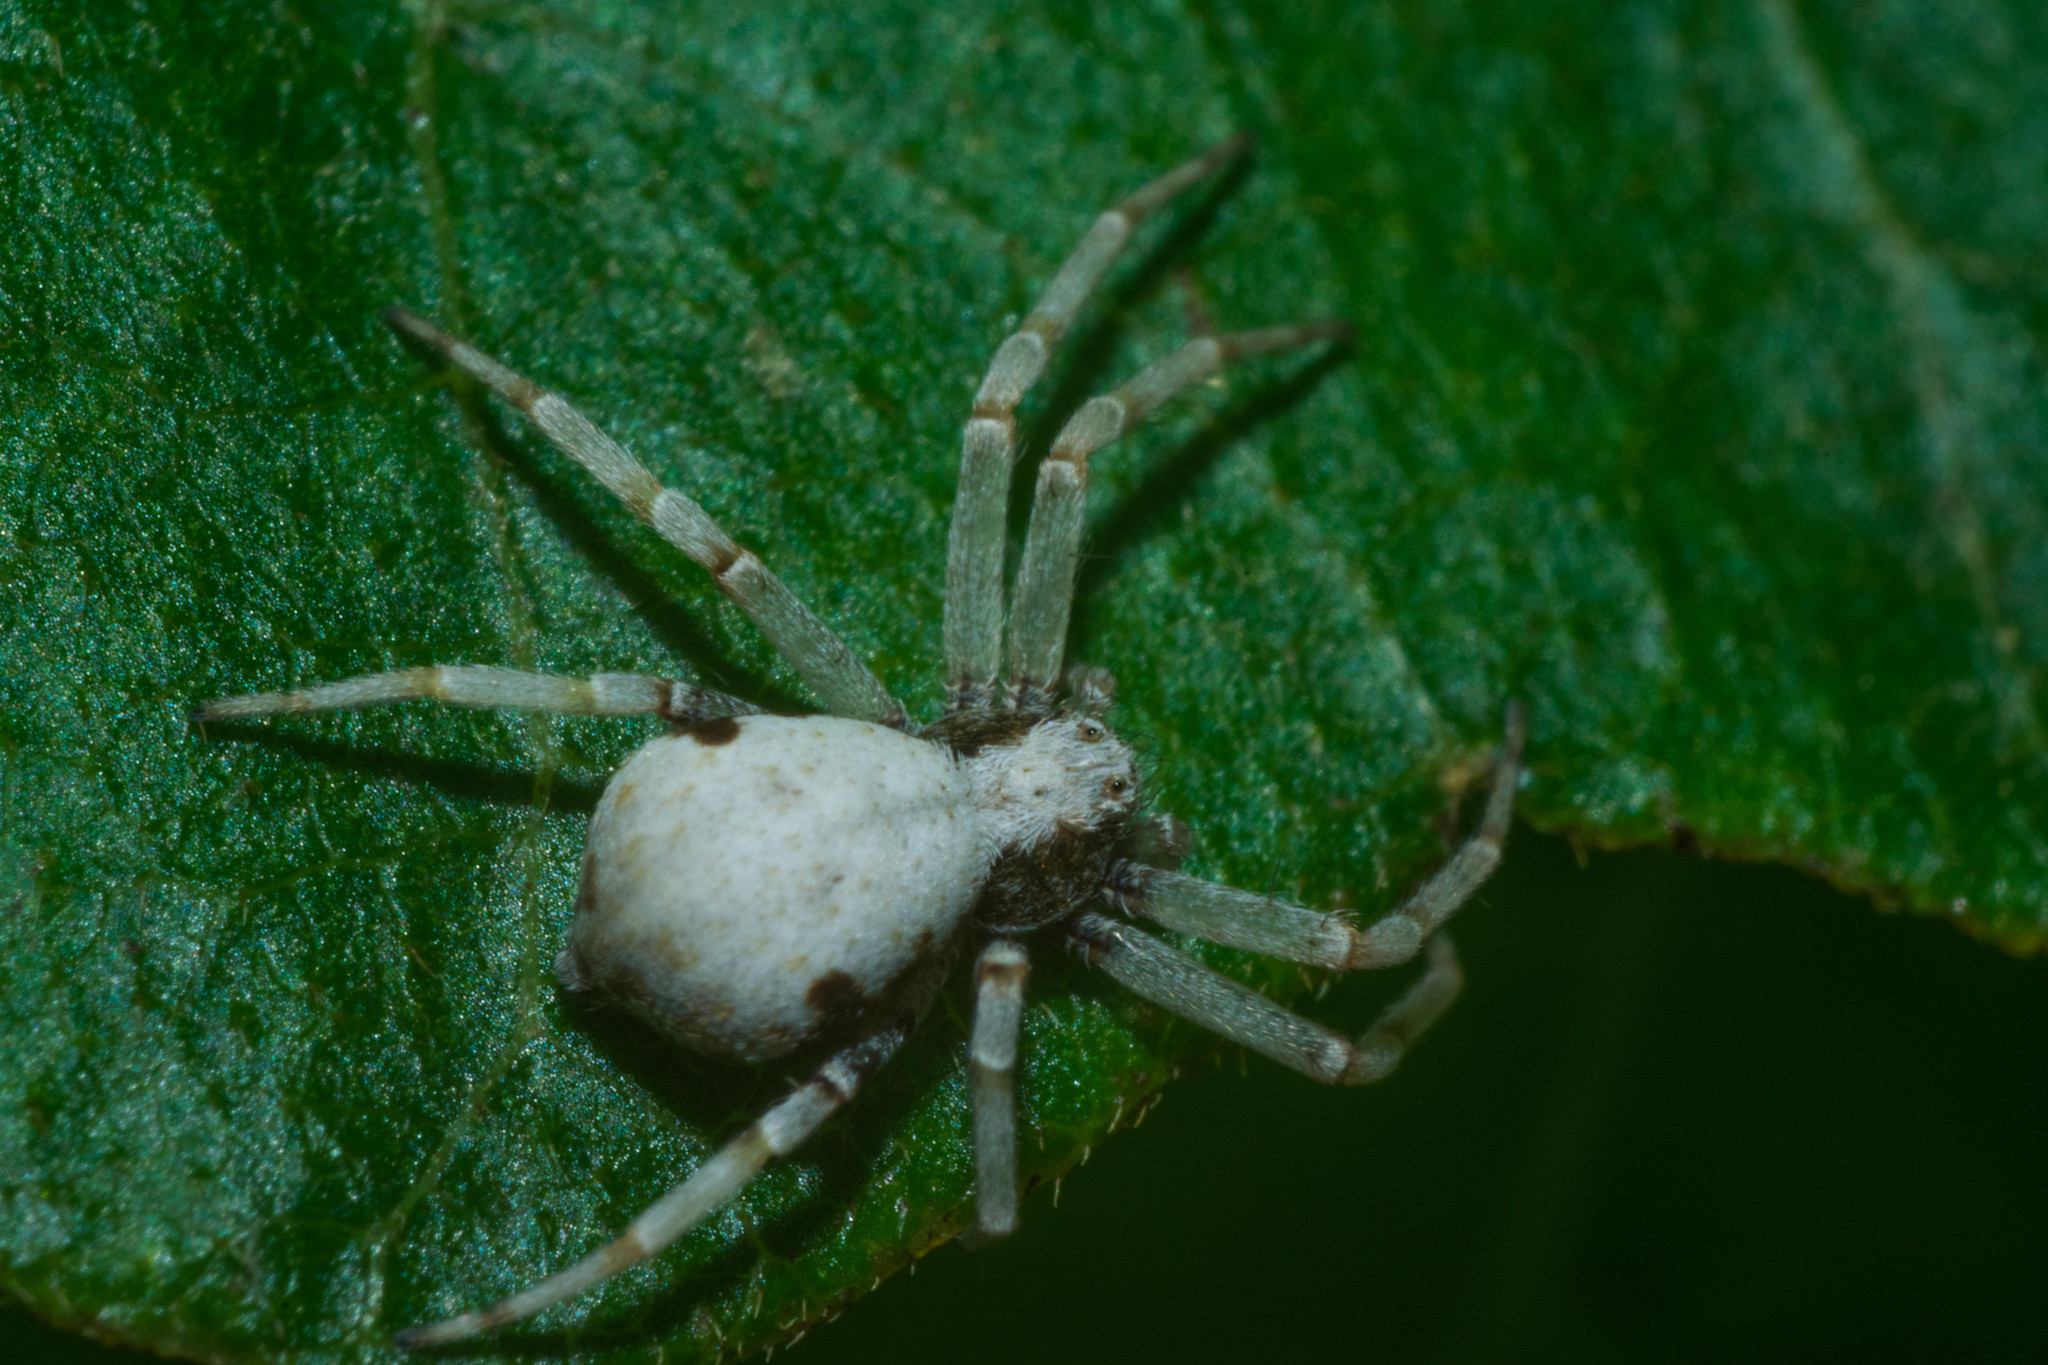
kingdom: Animalia
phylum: Arthropoda
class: Arachnida
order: Araneae
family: Philodromidae
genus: Philodromus
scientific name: Philodromus marxi
